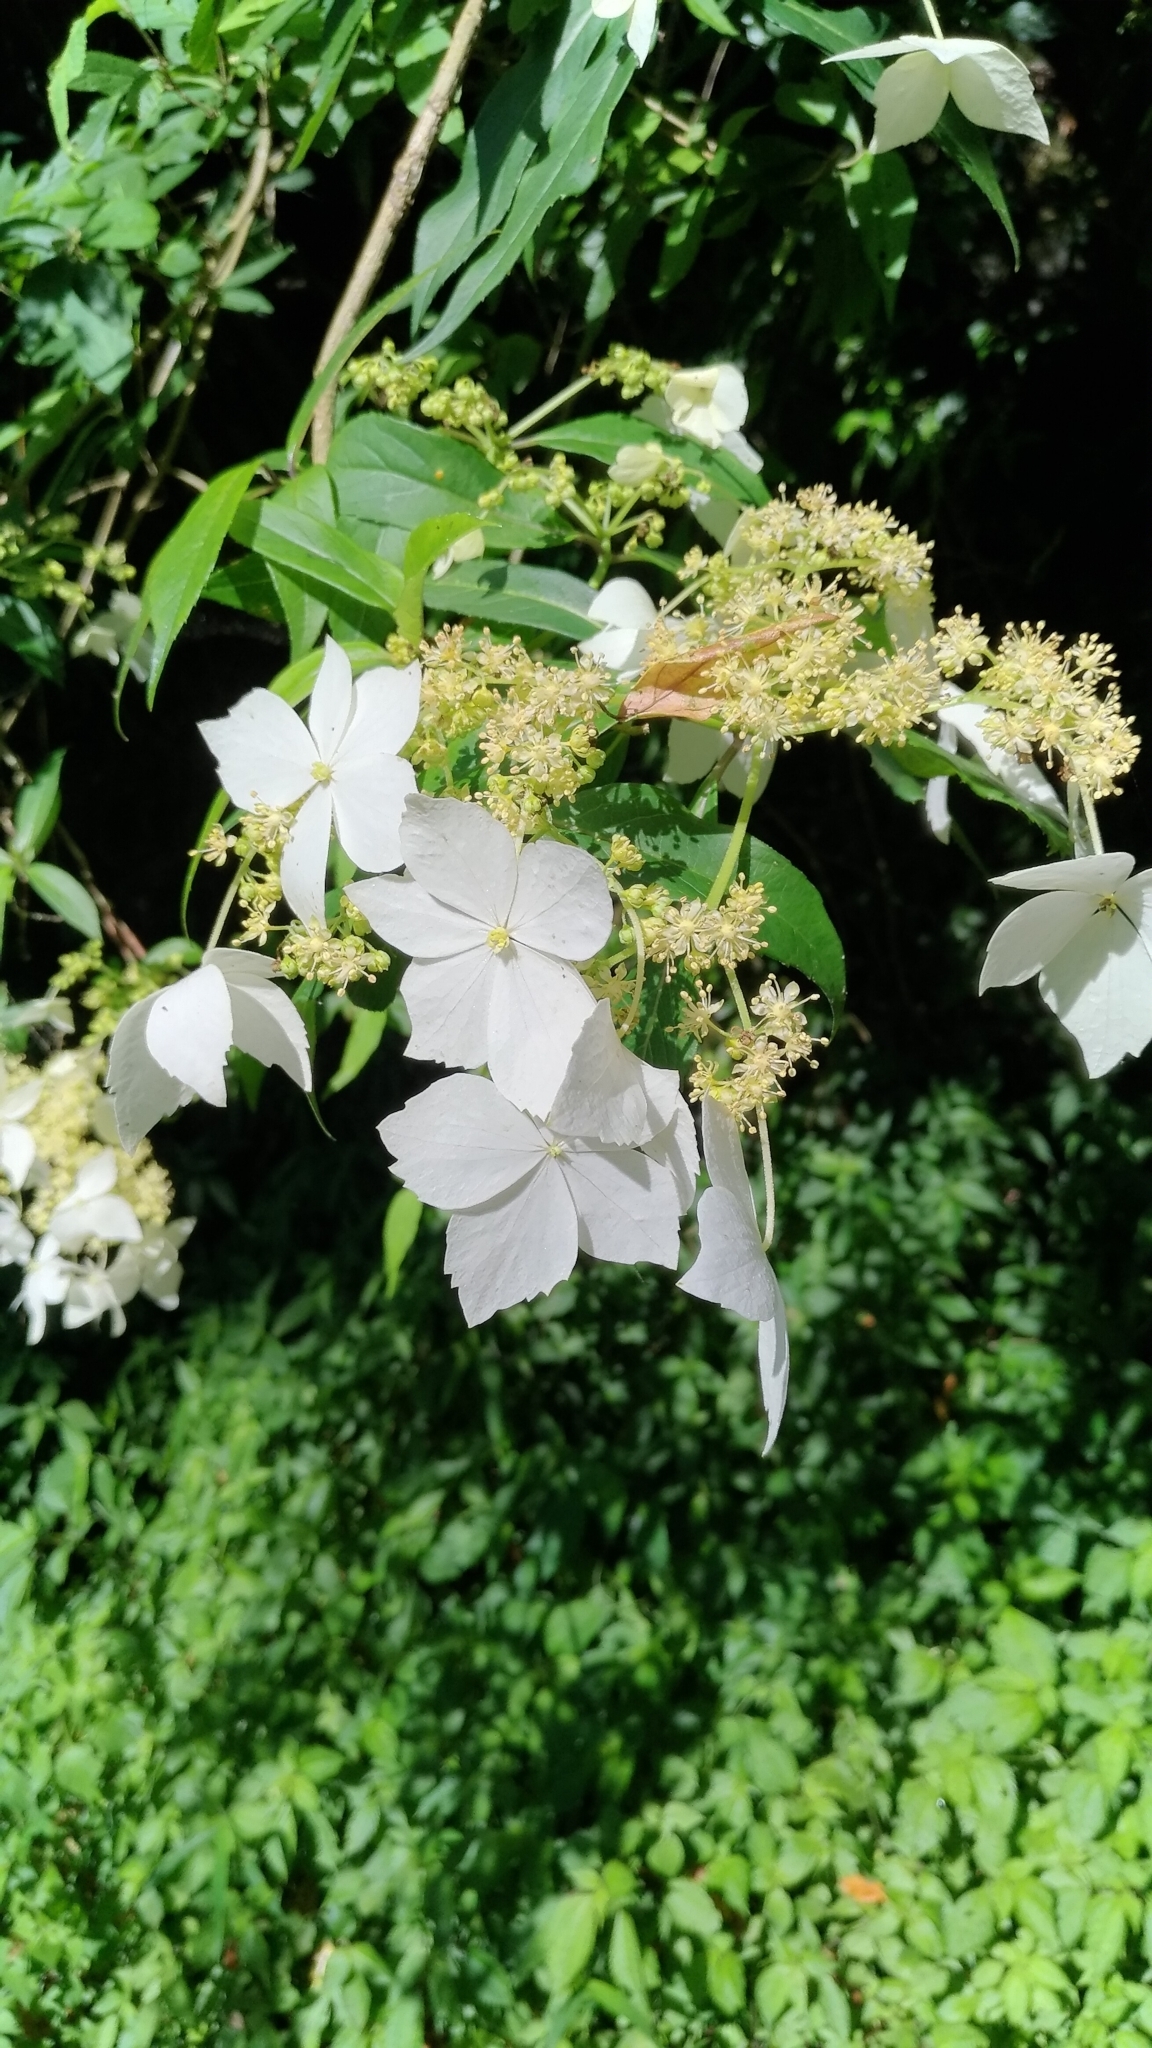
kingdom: Plantae
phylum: Tracheophyta
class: Magnoliopsida
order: Cornales
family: Hydrangeaceae
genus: Hydrangea
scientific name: Hydrangea chinensis
